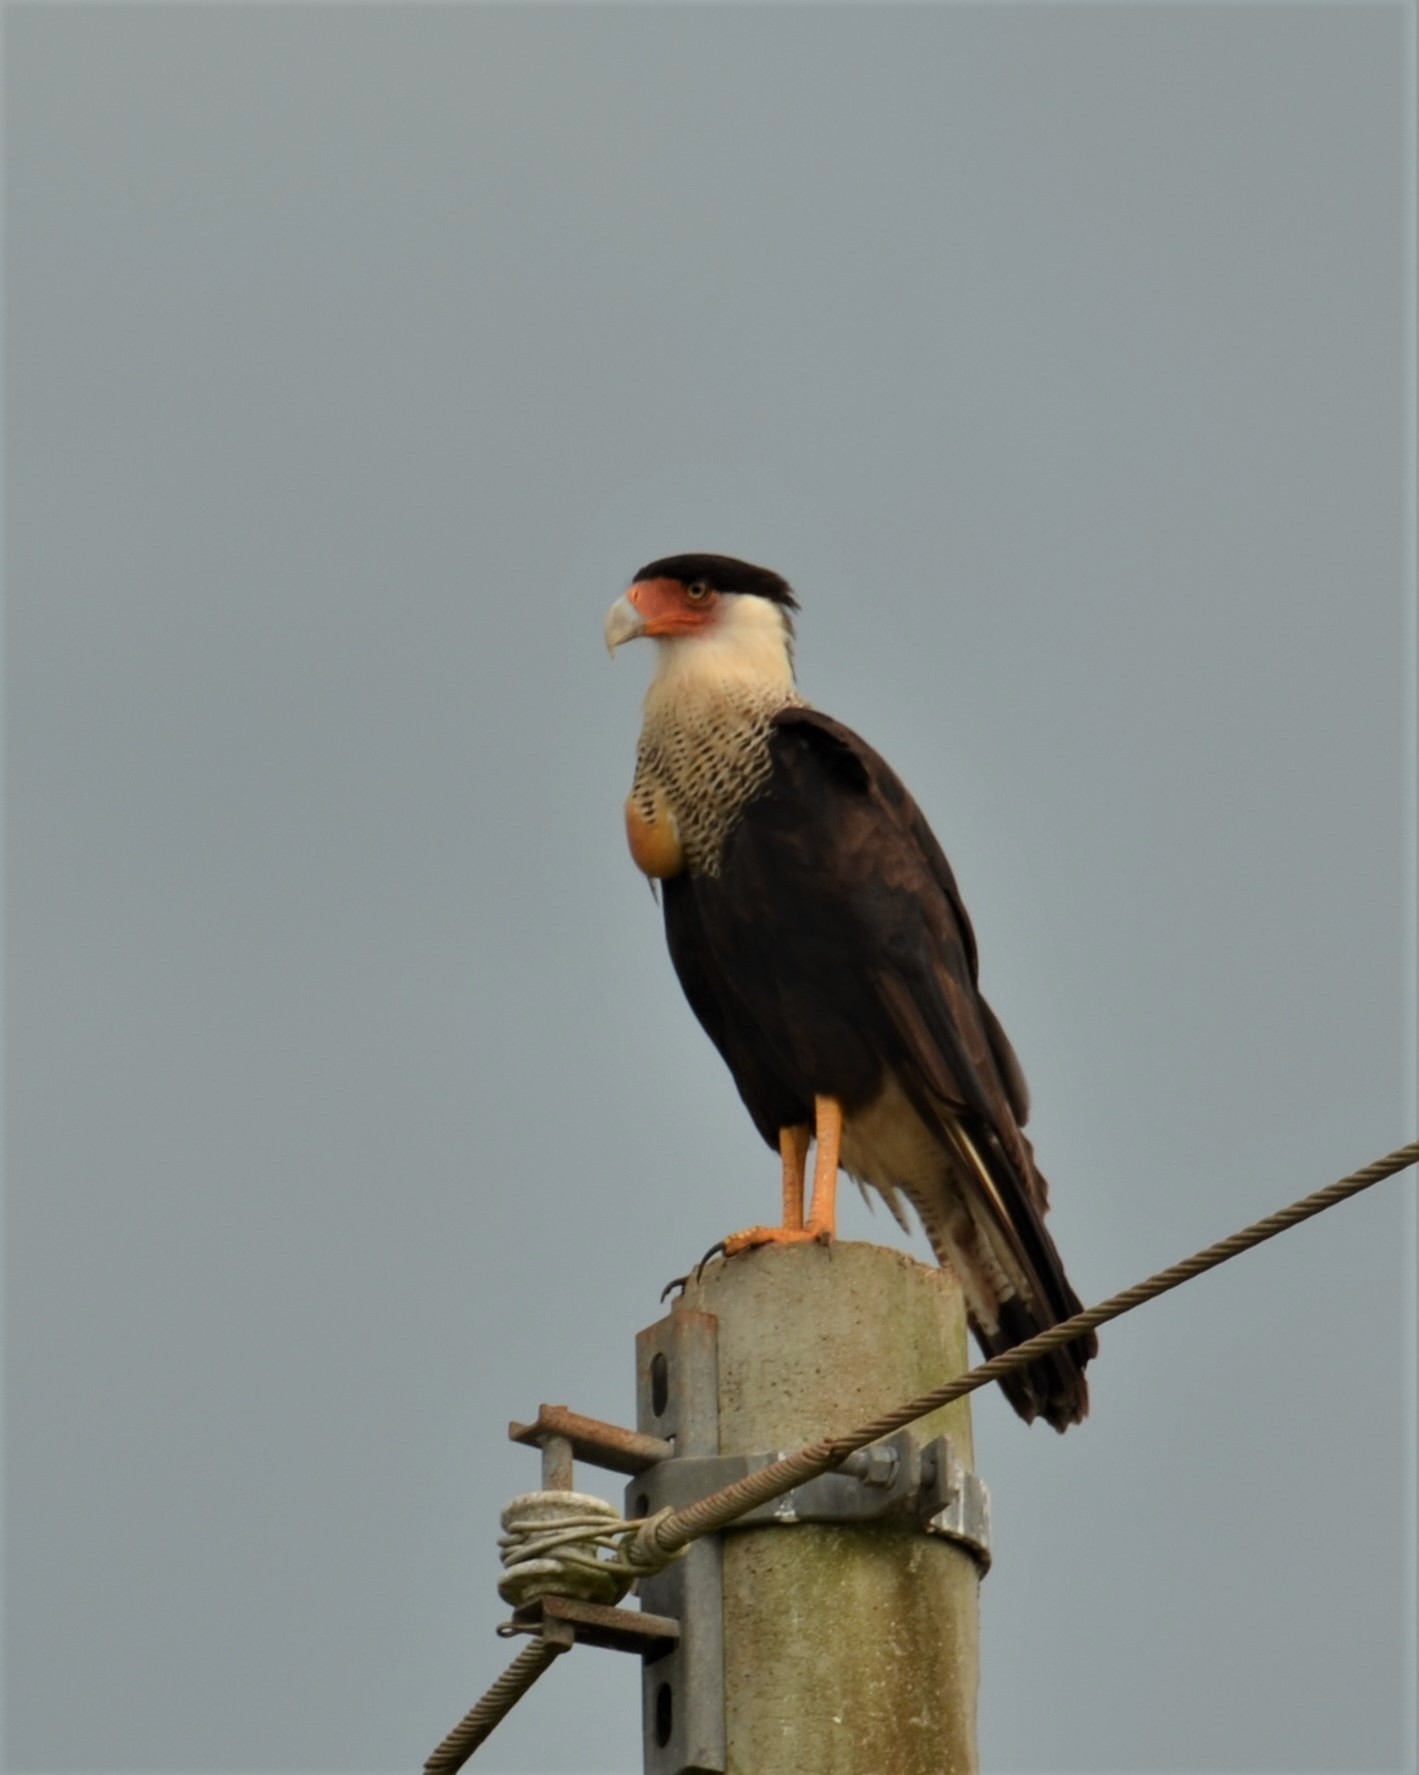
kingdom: Animalia
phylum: Chordata
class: Aves
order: Falconiformes
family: Falconidae
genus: Caracara
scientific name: Caracara plancus
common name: Southern caracara
